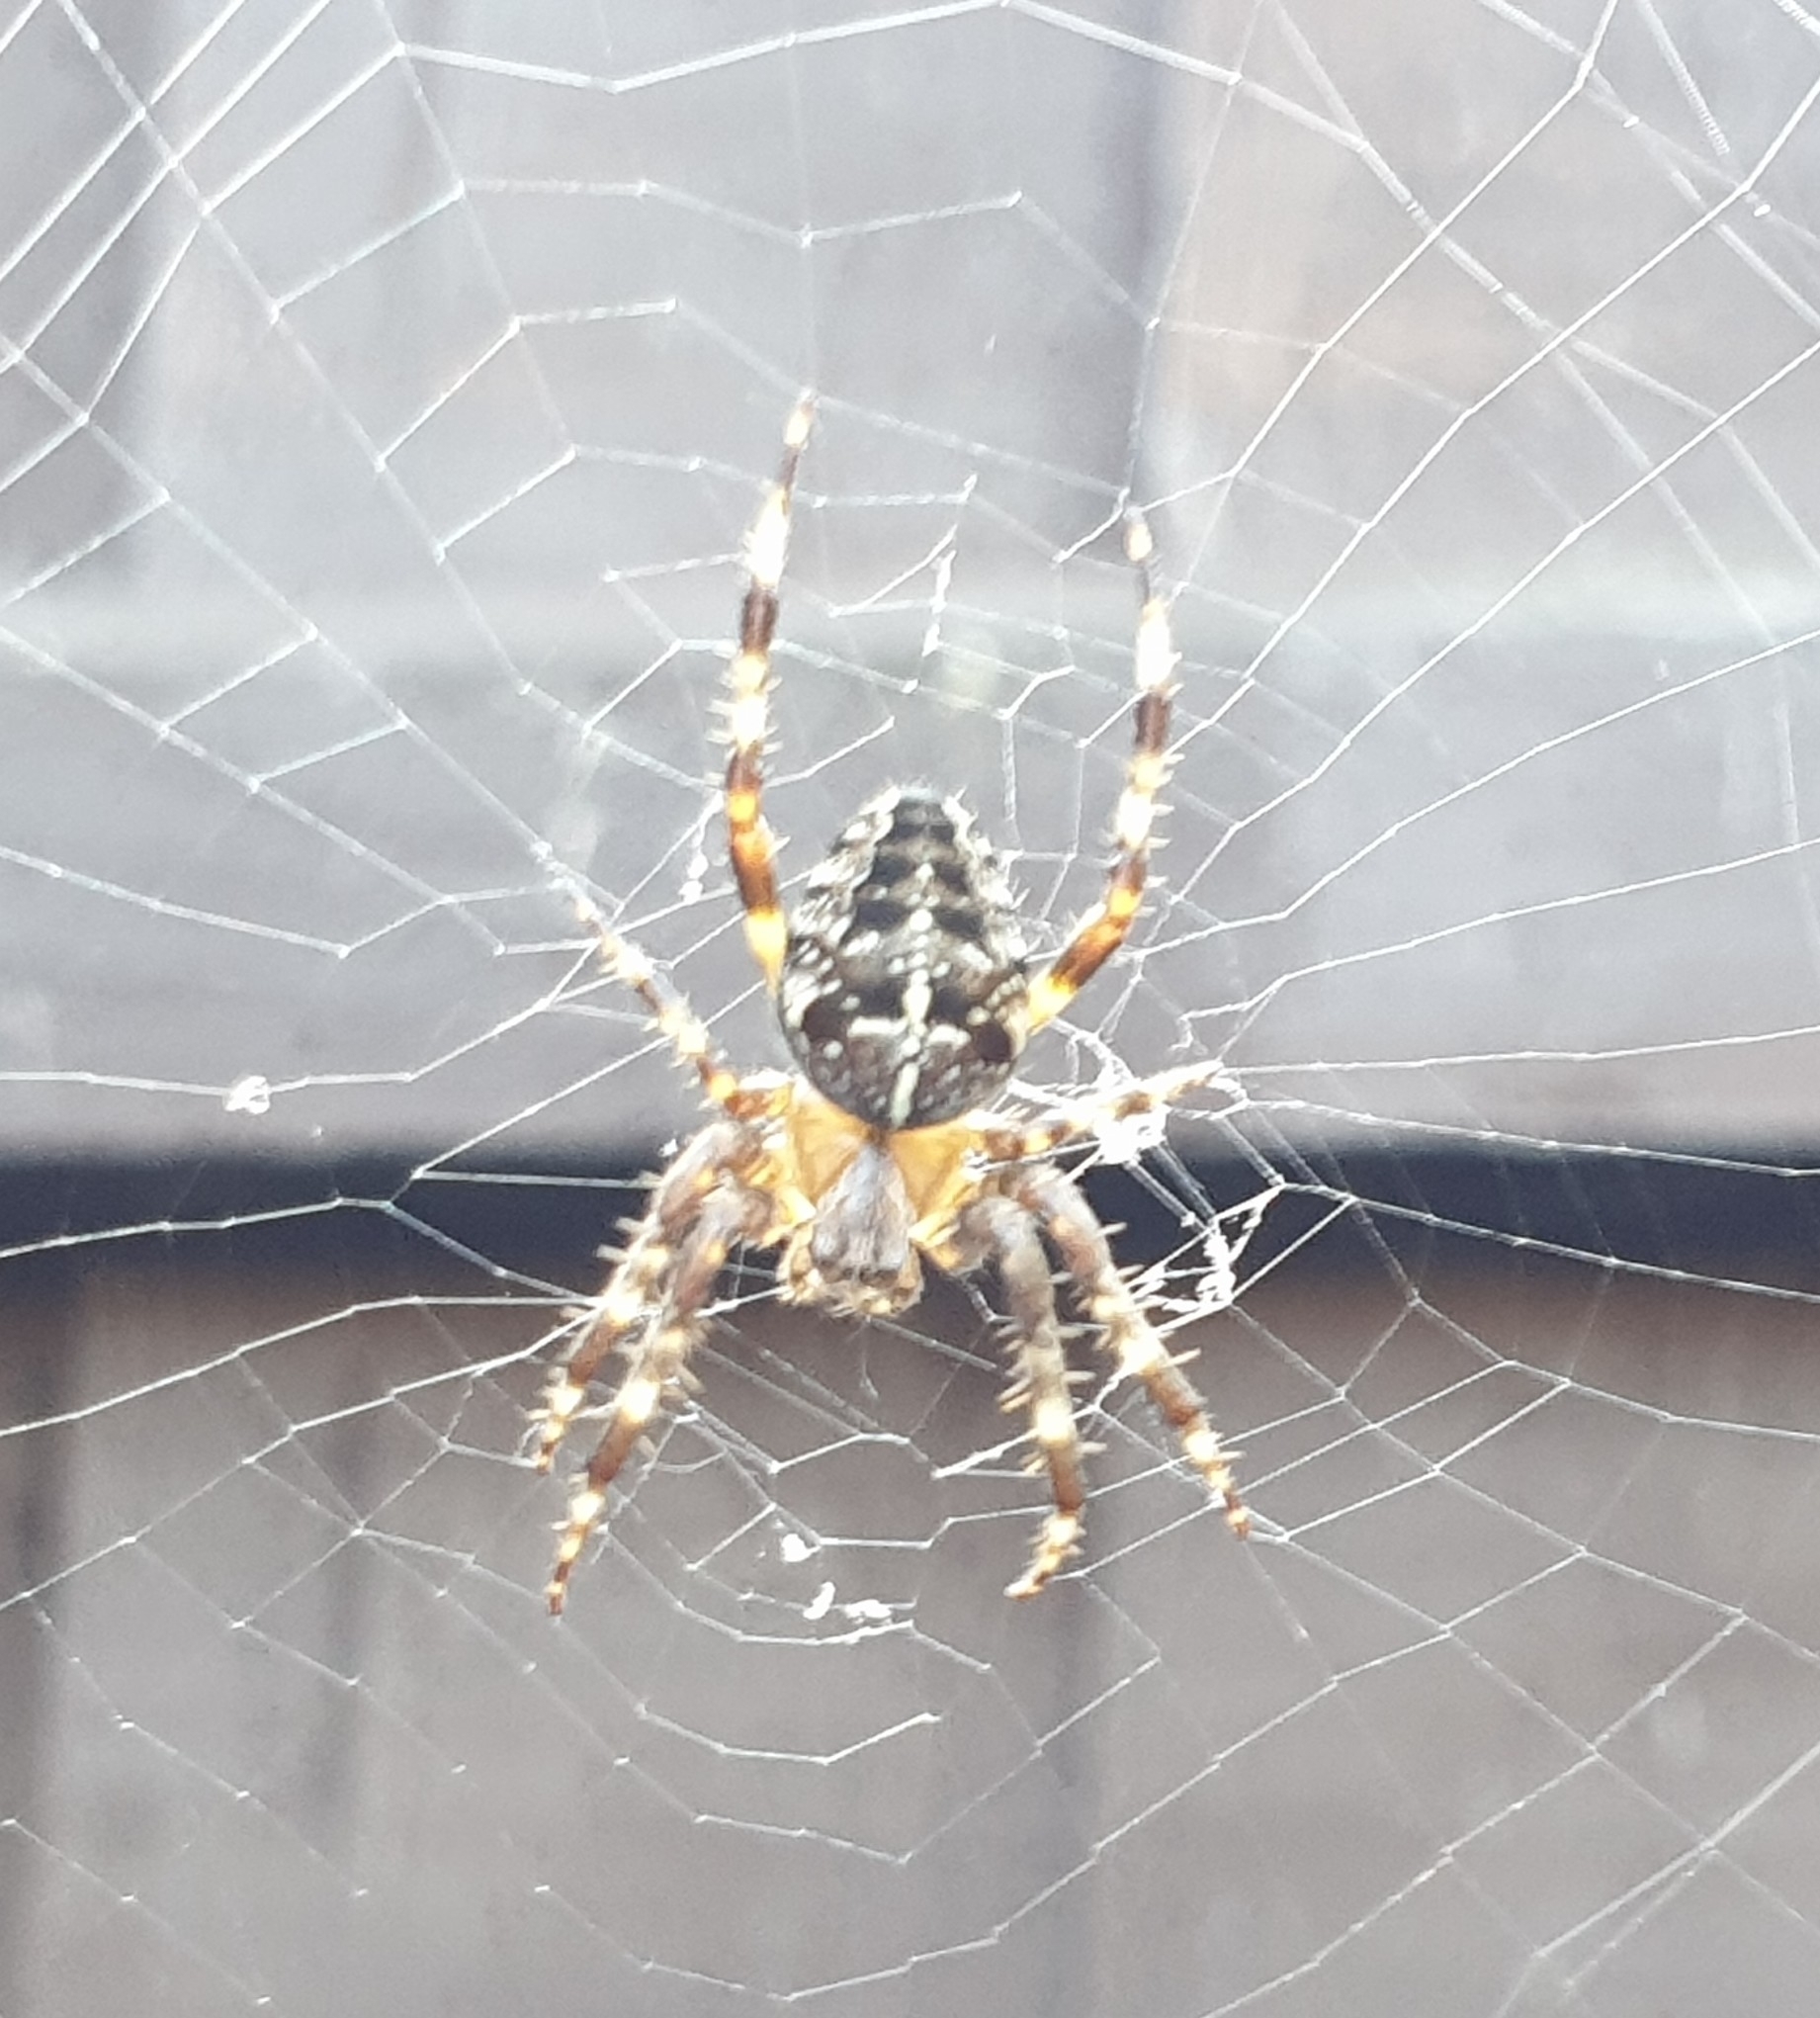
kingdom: Animalia
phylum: Arthropoda
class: Arachnida
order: Araneae
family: Araneidae
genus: Araneus
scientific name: Araneus diadematus
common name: Cross orbweaver
